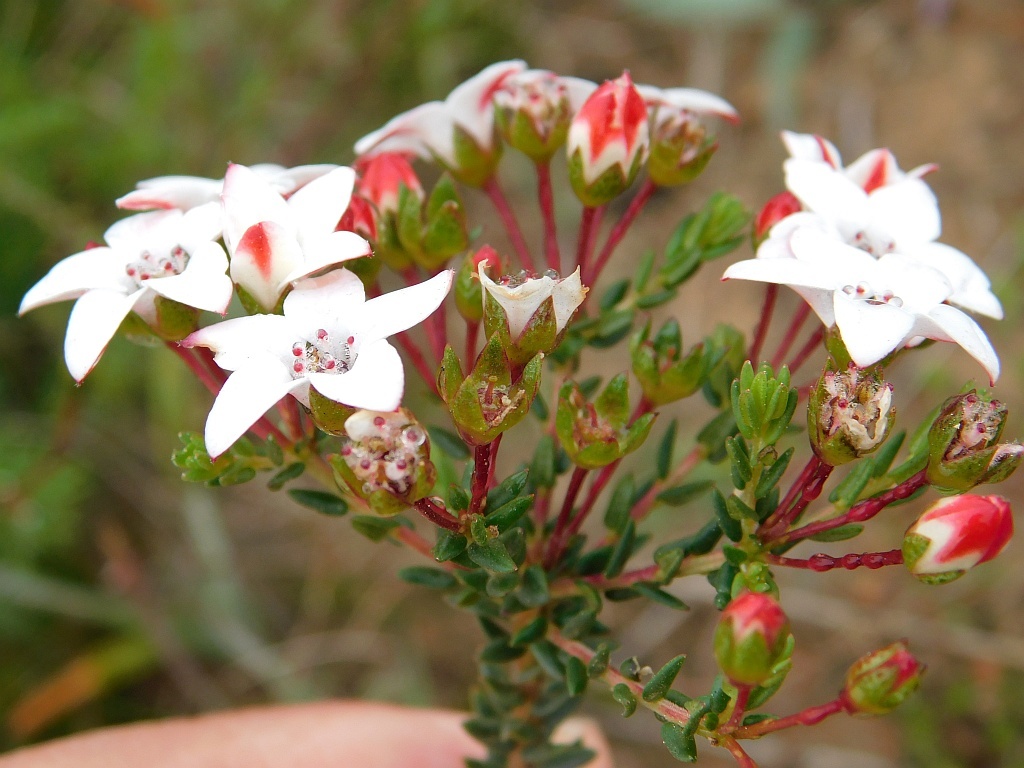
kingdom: Plantae
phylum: Tracheophyta
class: Magnoliopsida
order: Sapindales
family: Rutaceae
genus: Adenandra
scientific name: Adenandra marginata
